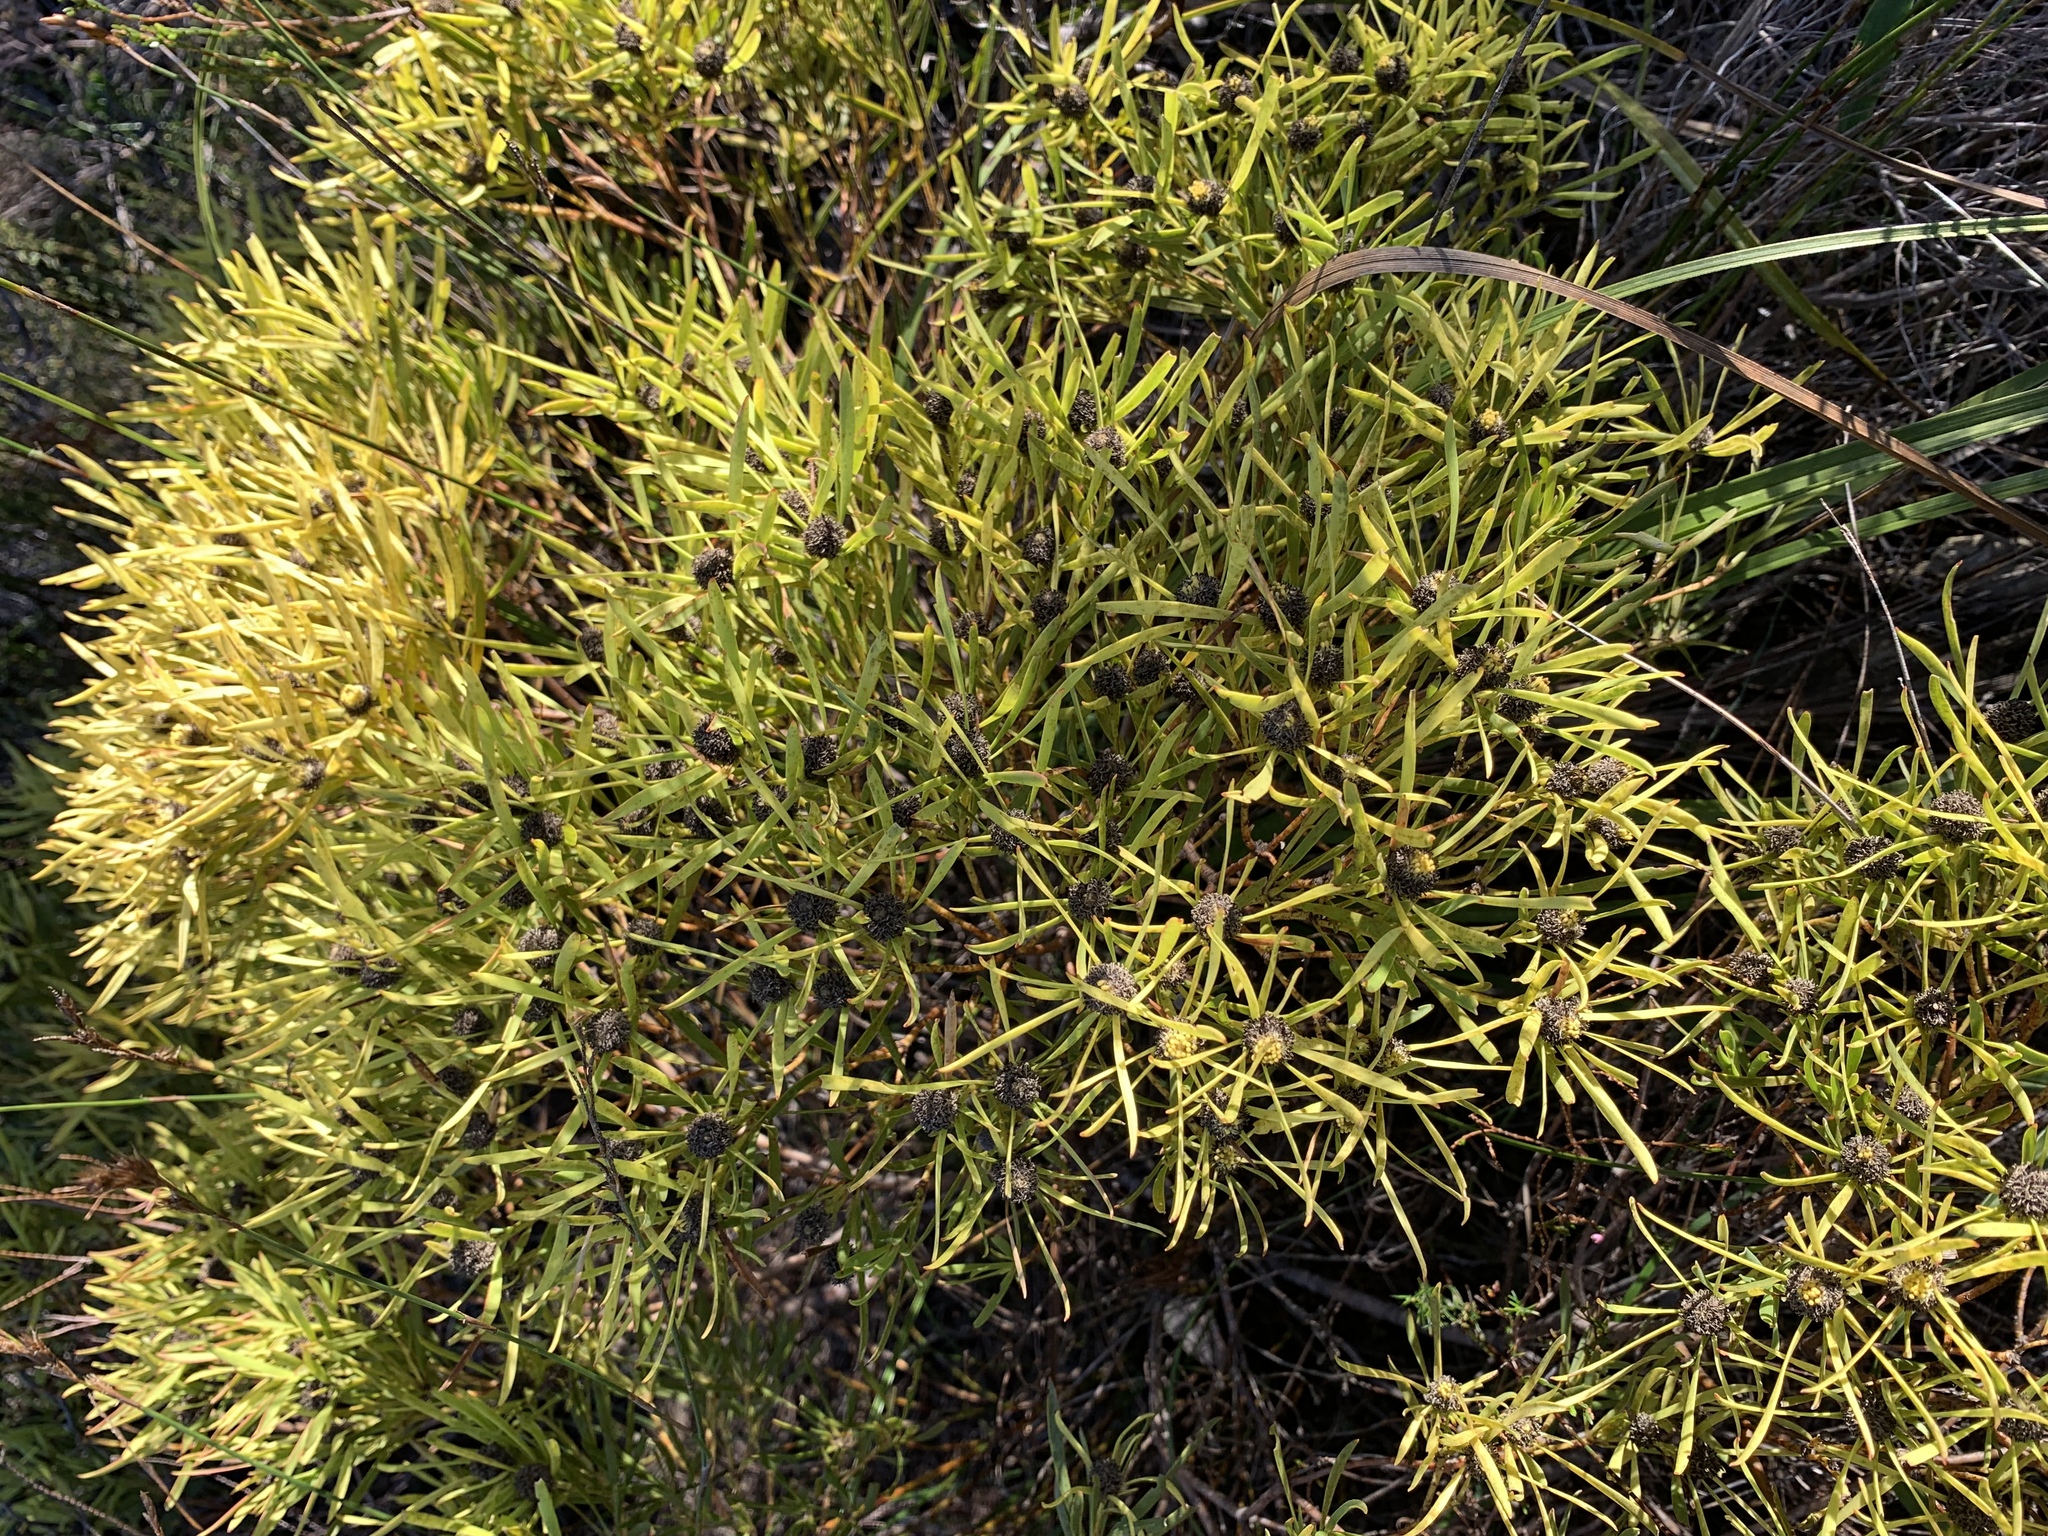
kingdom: Plantae
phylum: Tracheophyta
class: Magnoliopsida
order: Proteales
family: Proteaceae
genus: Leucadendron
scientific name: Leucadendron salignum
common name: Common sunshine conebush
